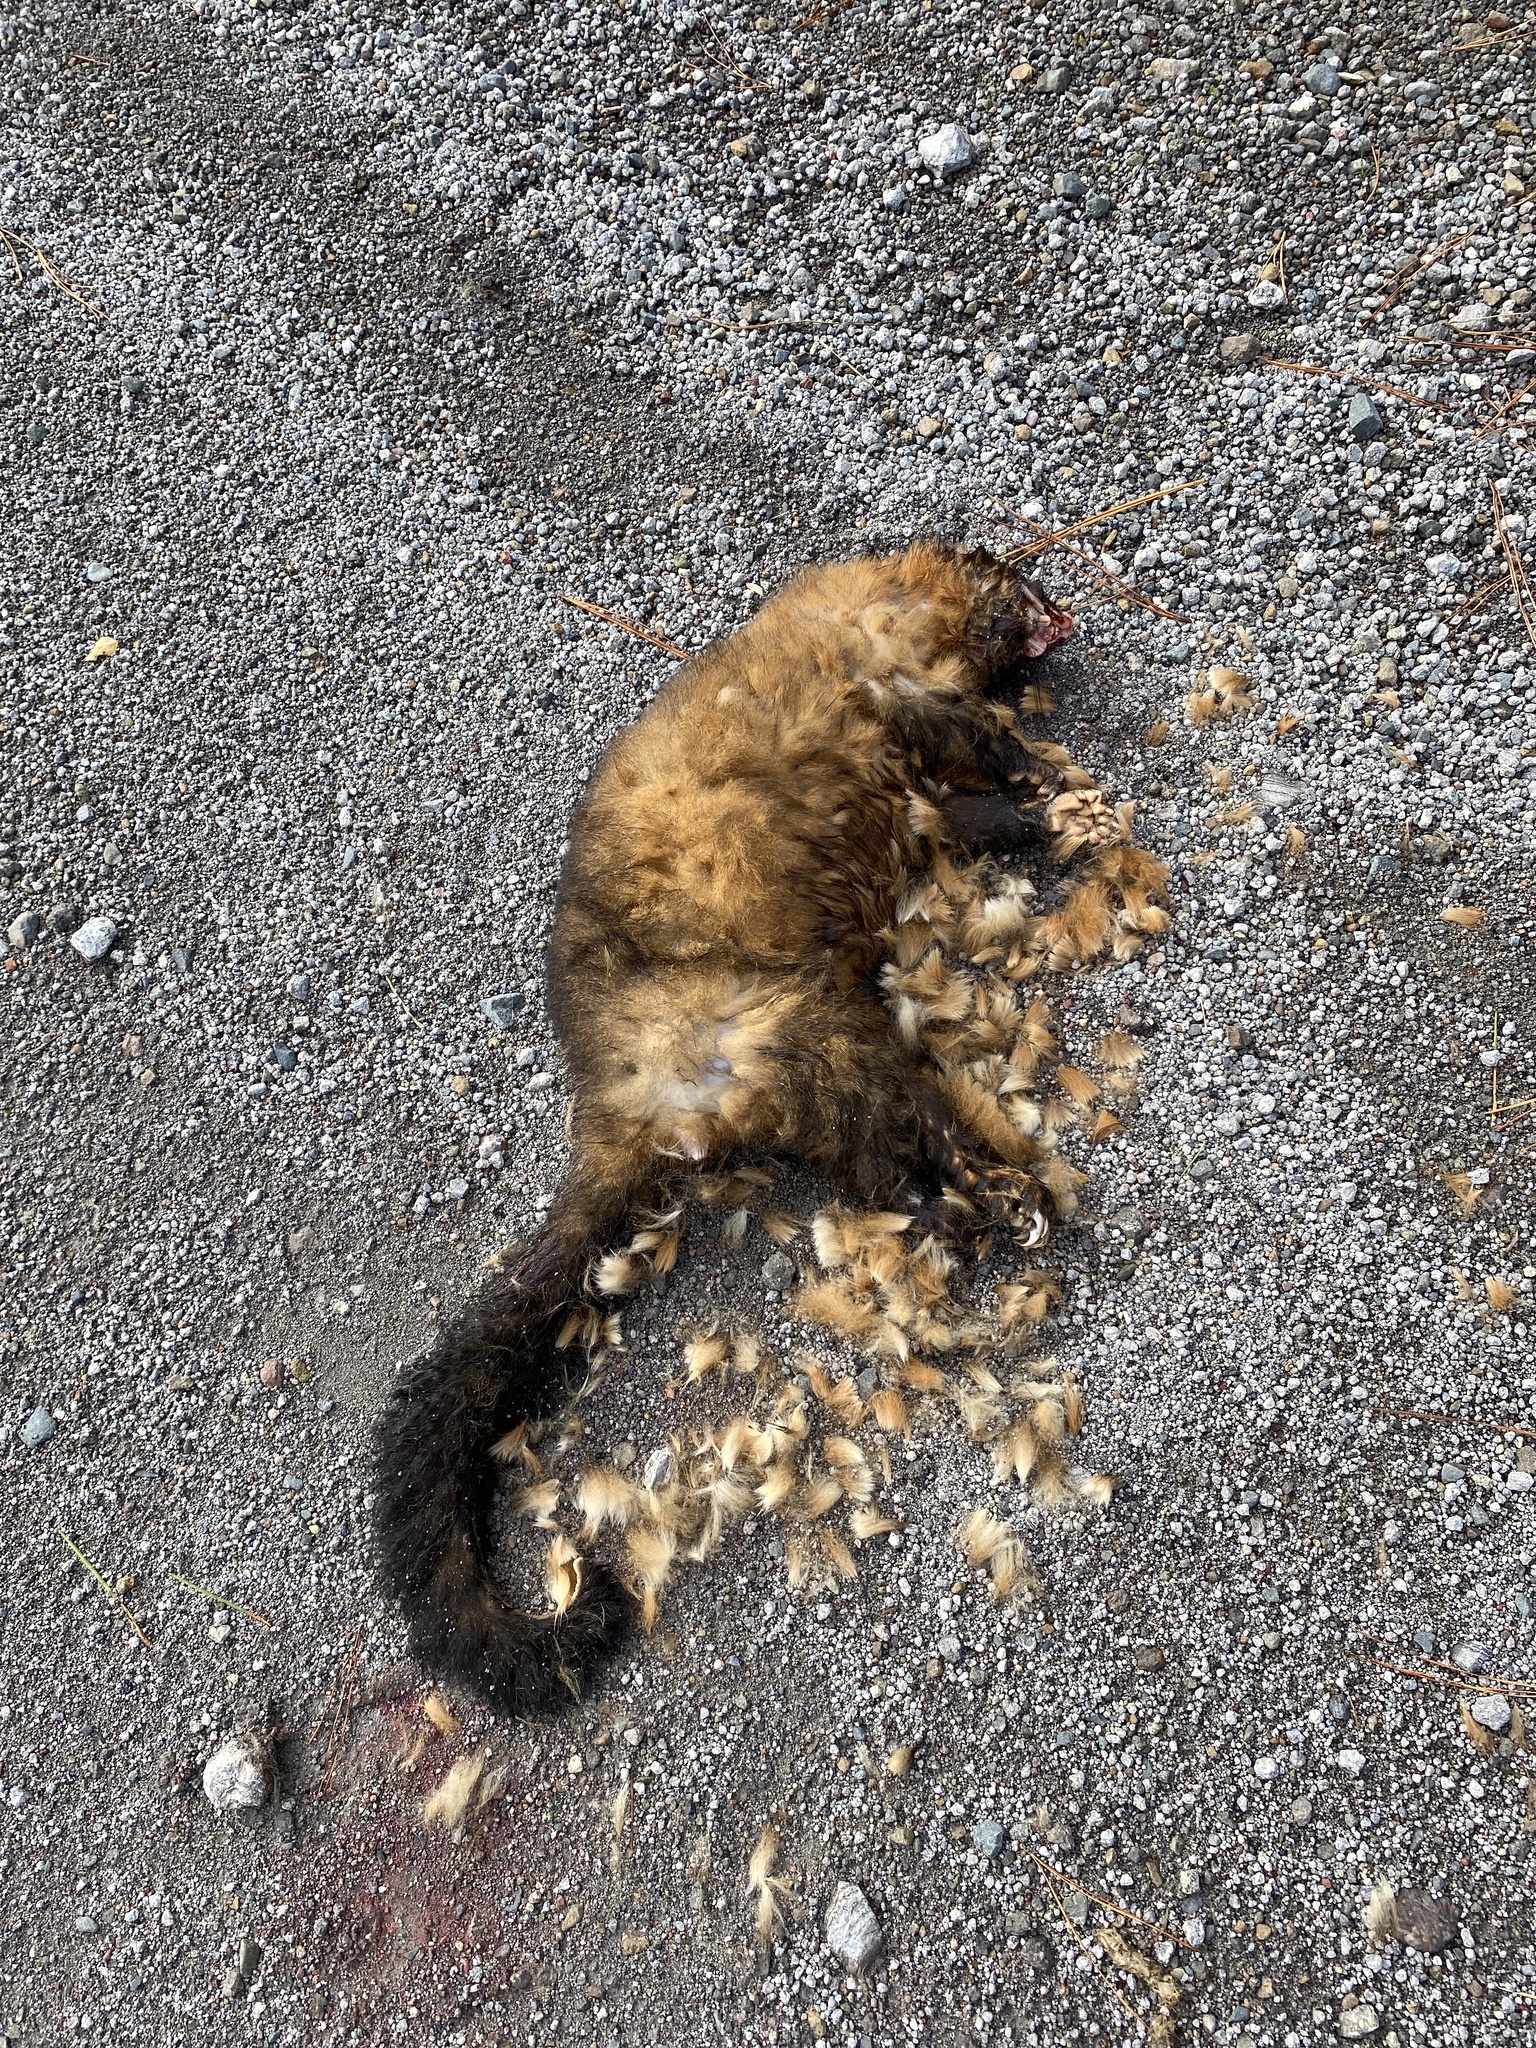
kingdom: Animalia
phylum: Chordata
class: Mammalia
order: Diprotodontia
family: Phalangeridae
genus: Trichosurus
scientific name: Trichosurus vulpecula
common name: Common brushtail
